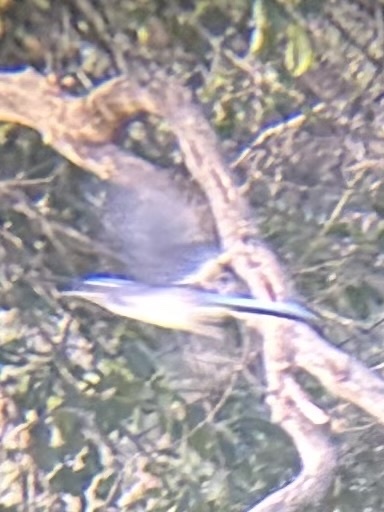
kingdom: Animalia
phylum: Chordata
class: Aves
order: Passeriformes
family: Corvidae
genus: Aphelocoma
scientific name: Aphelocoma californica
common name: California scrub-jay
